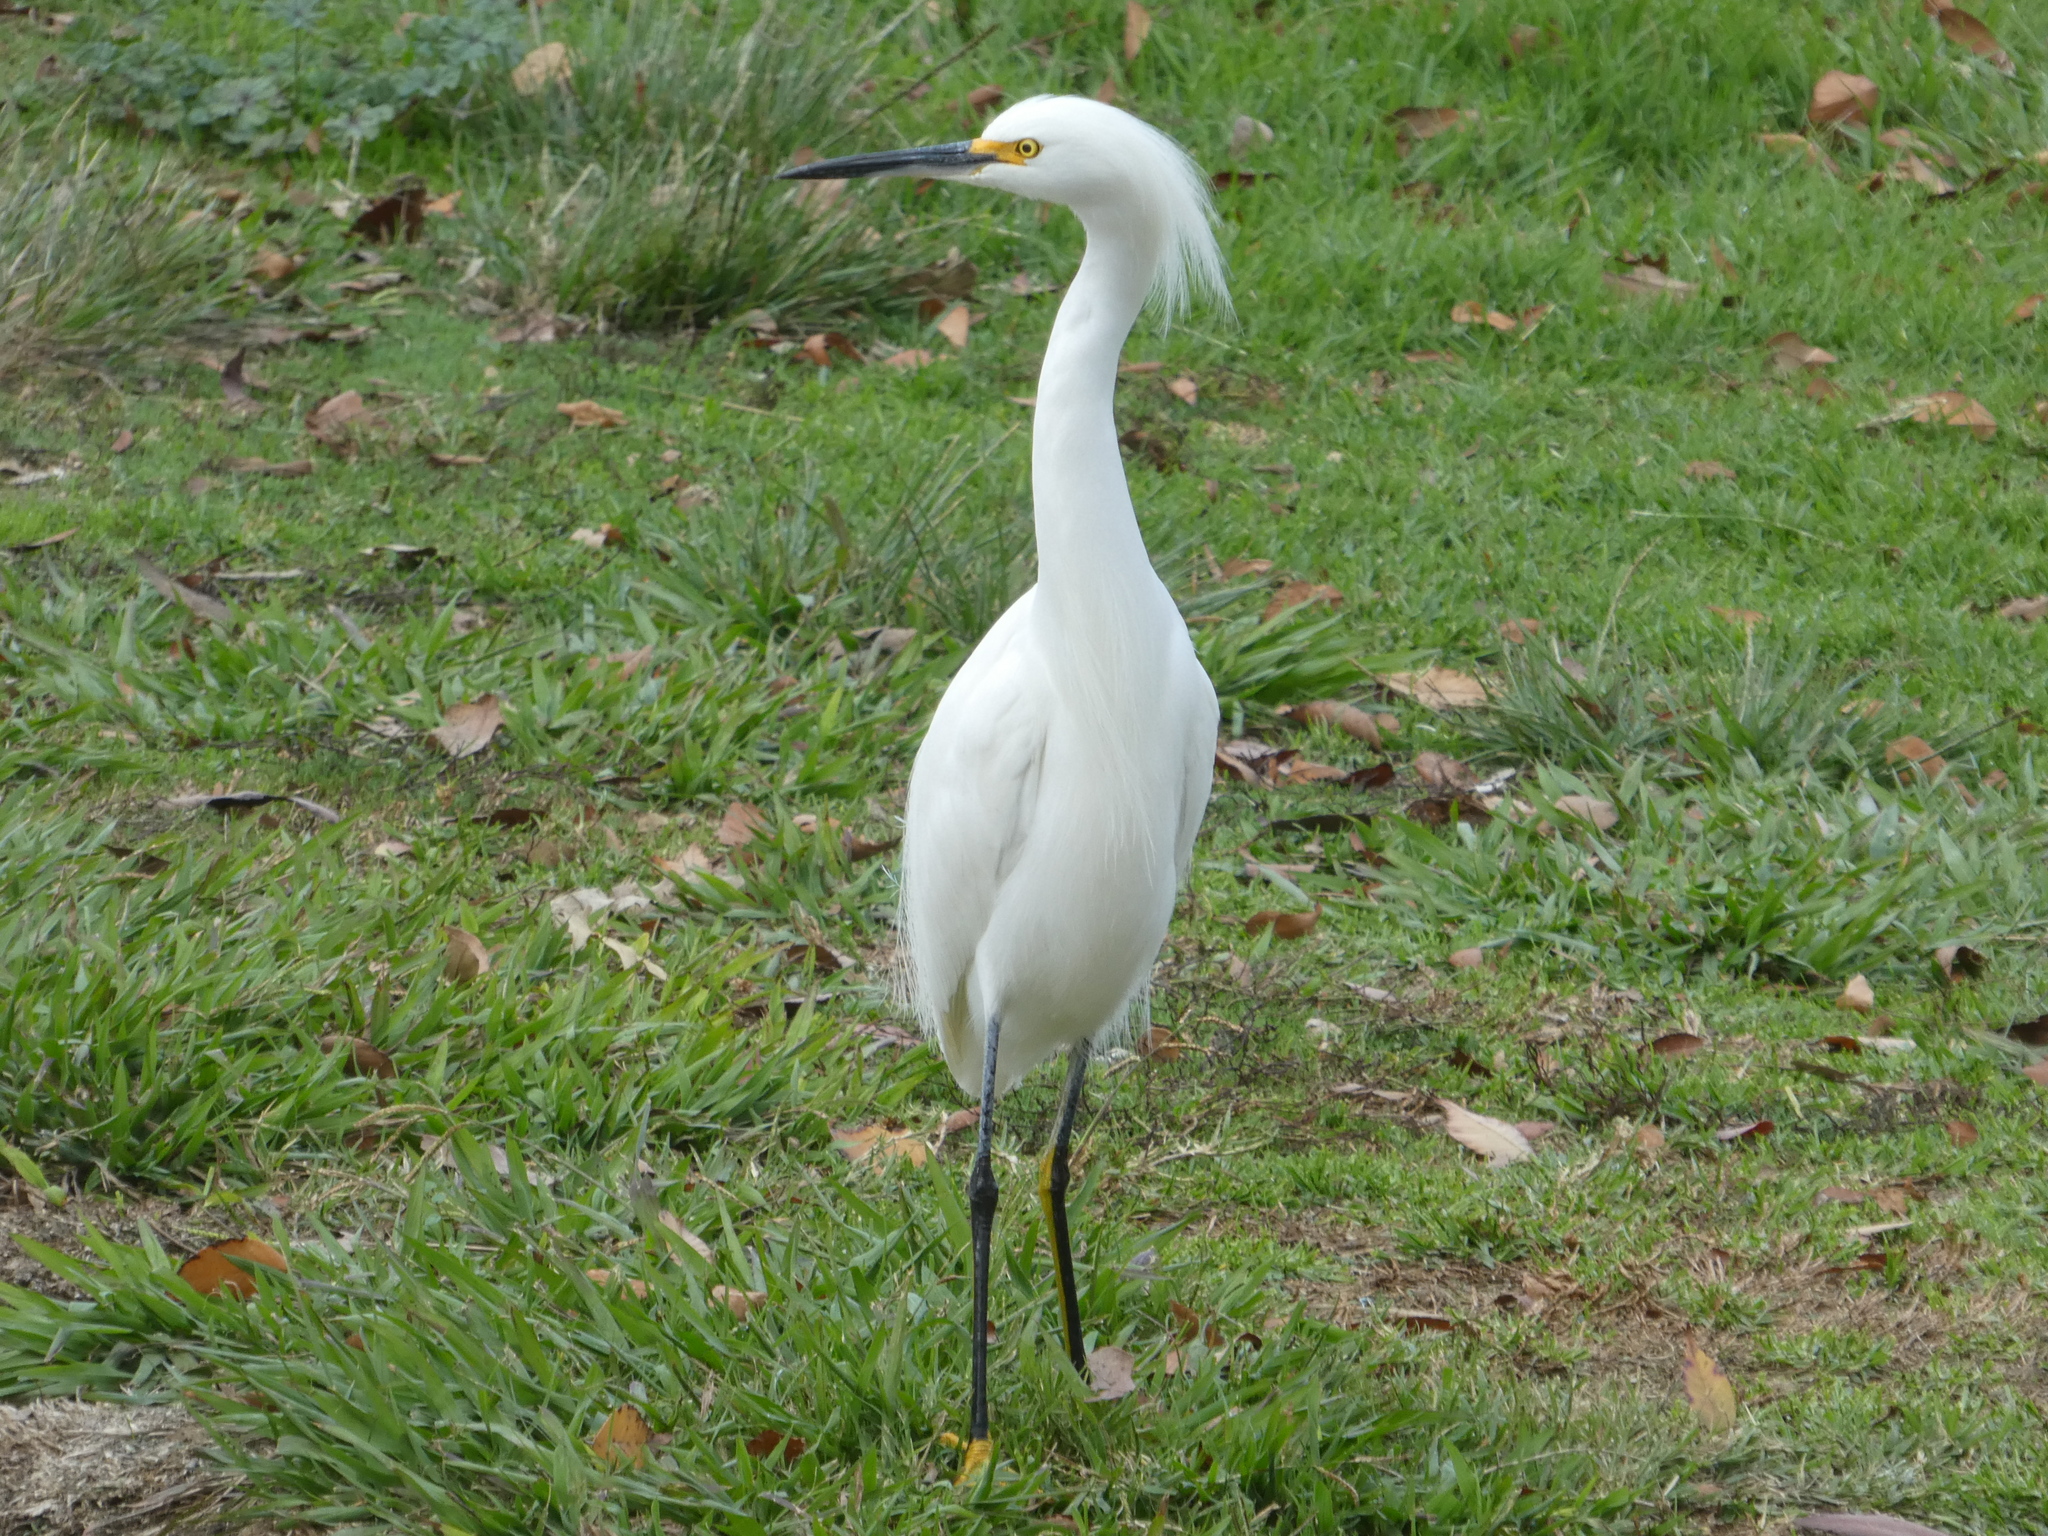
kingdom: Animalia
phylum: Chordata
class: Aves
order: Pelecaniformes
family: Ardeidae
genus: Egretta
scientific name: Egretta thula
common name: Snowy egret
